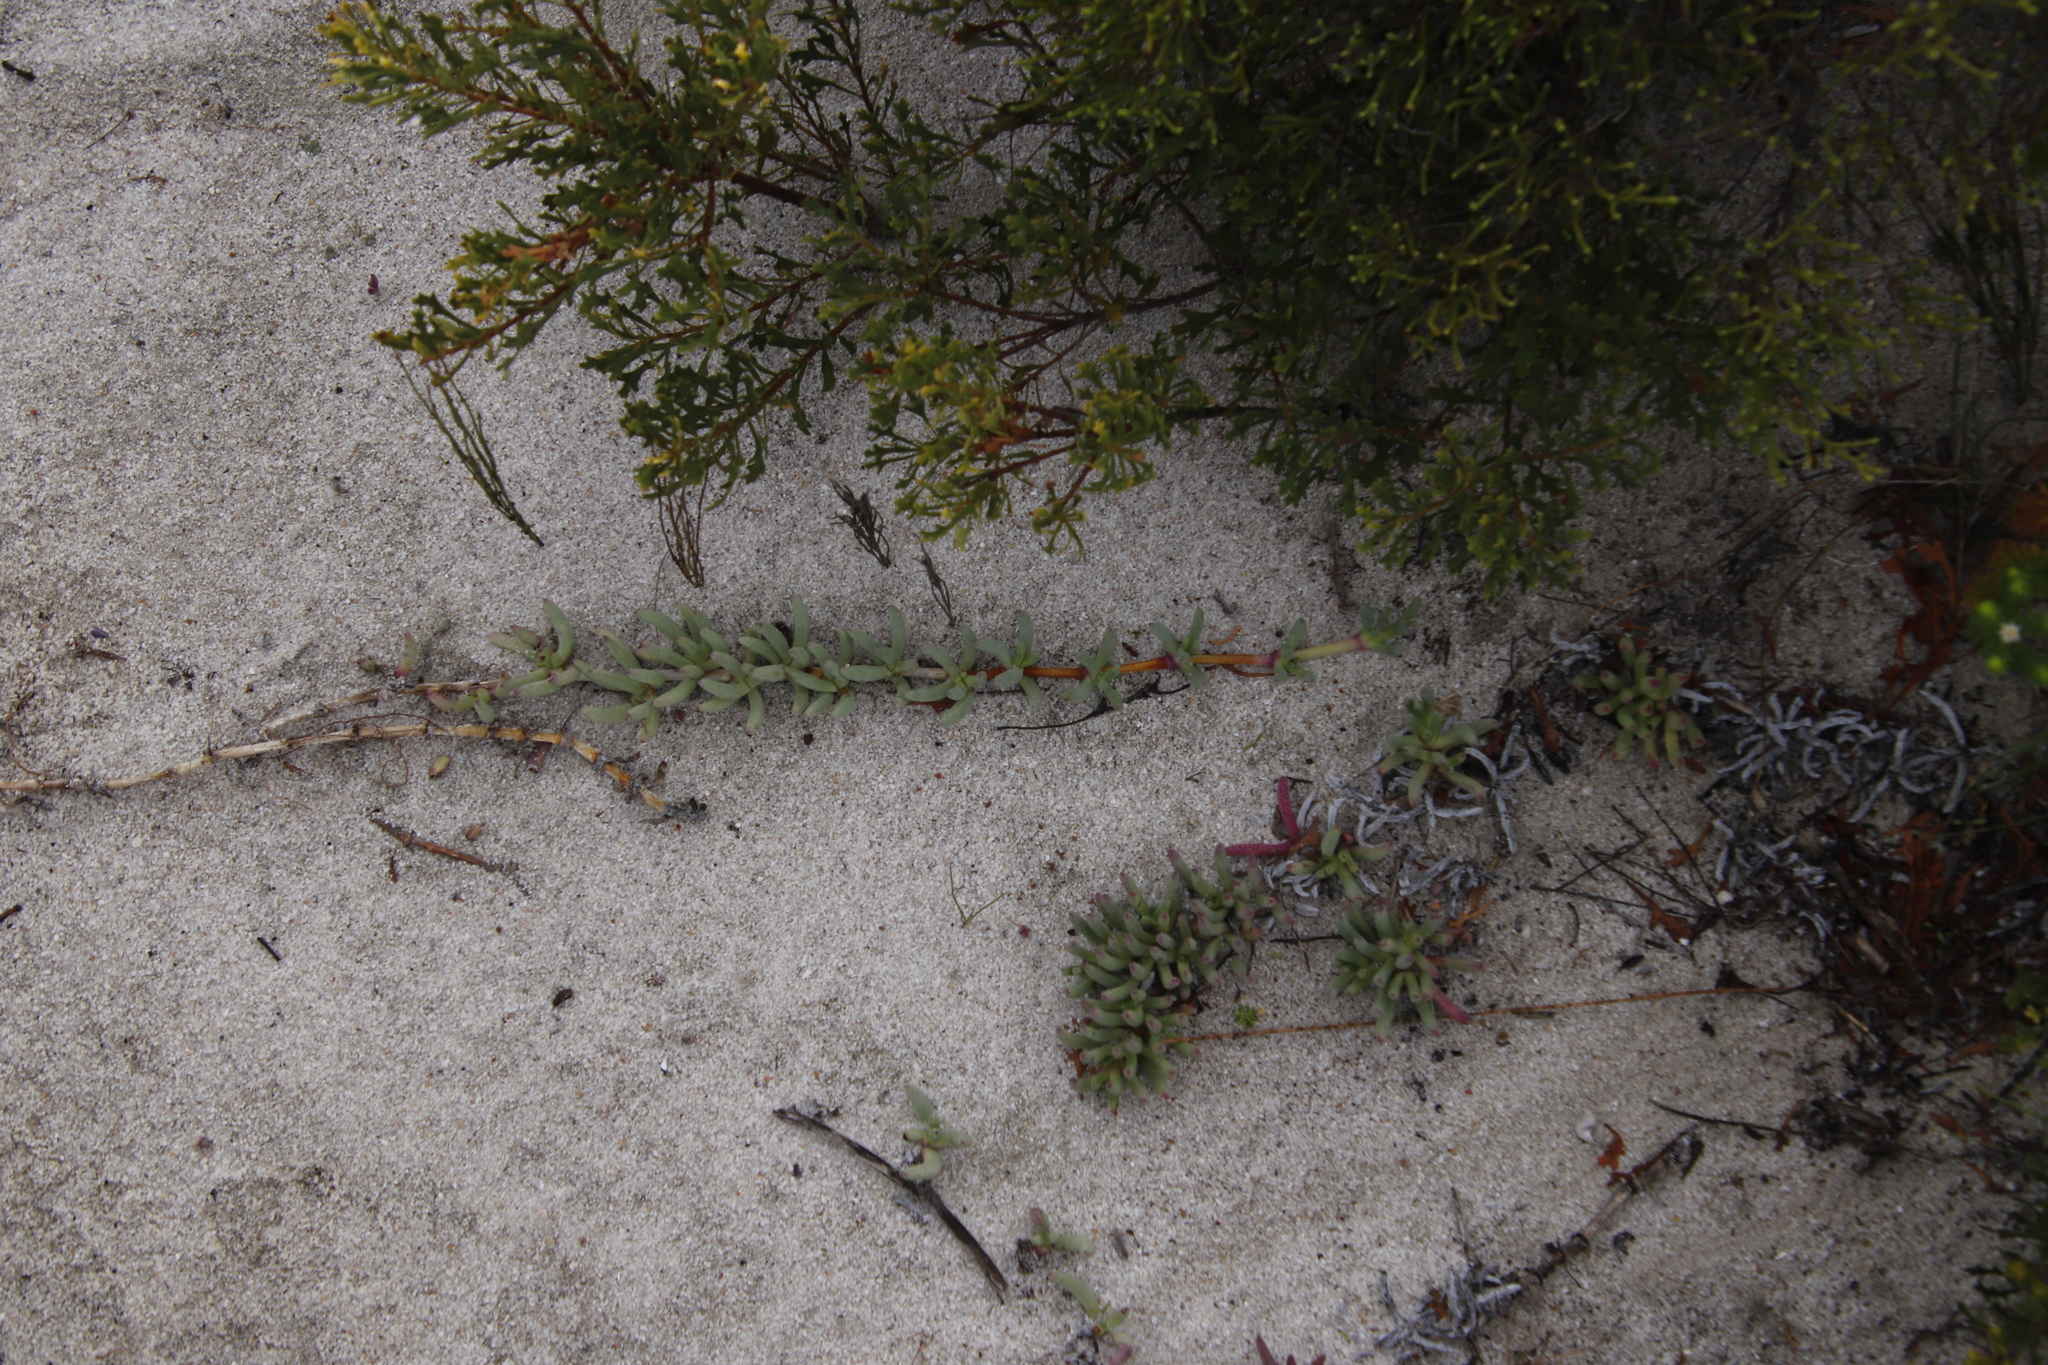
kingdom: Plantae
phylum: Tracheophyta
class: Magnoliopsida
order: Caryophyllales
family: Aizoaceae
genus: Jordaaniella
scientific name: Jordaaniella dubia
